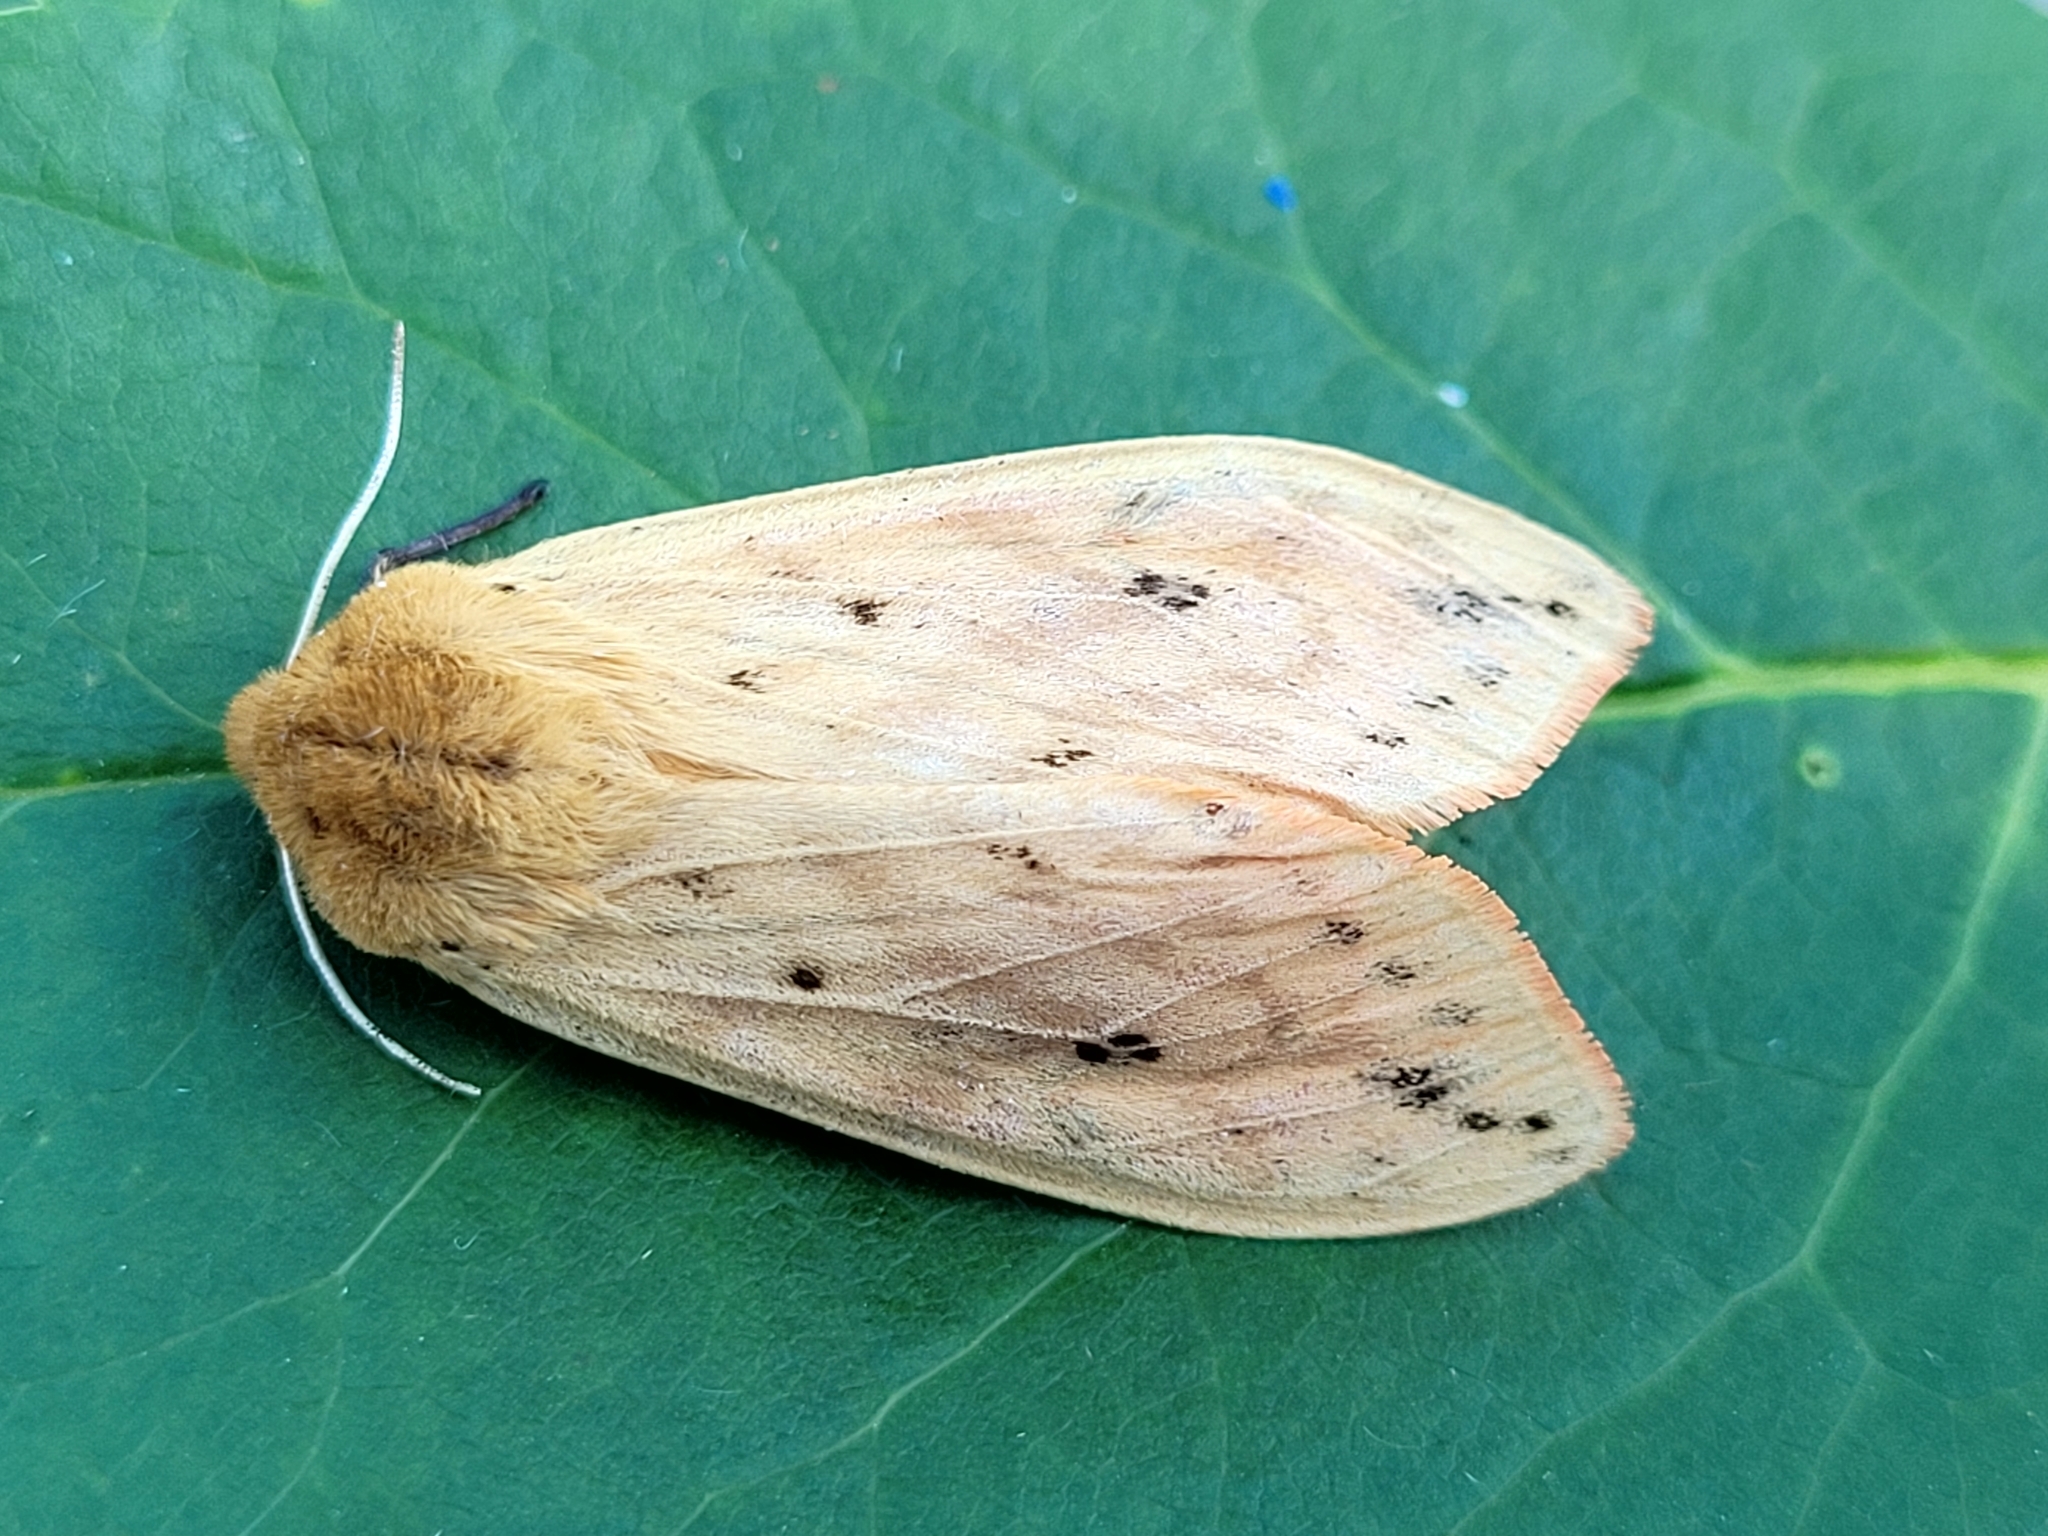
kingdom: Animalia
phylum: Arthropoda
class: Insecta
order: Lepidoptera
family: Erebidae
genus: Pyrrharctia
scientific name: Pyrrharctia isabella
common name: Isabella tiger moth
